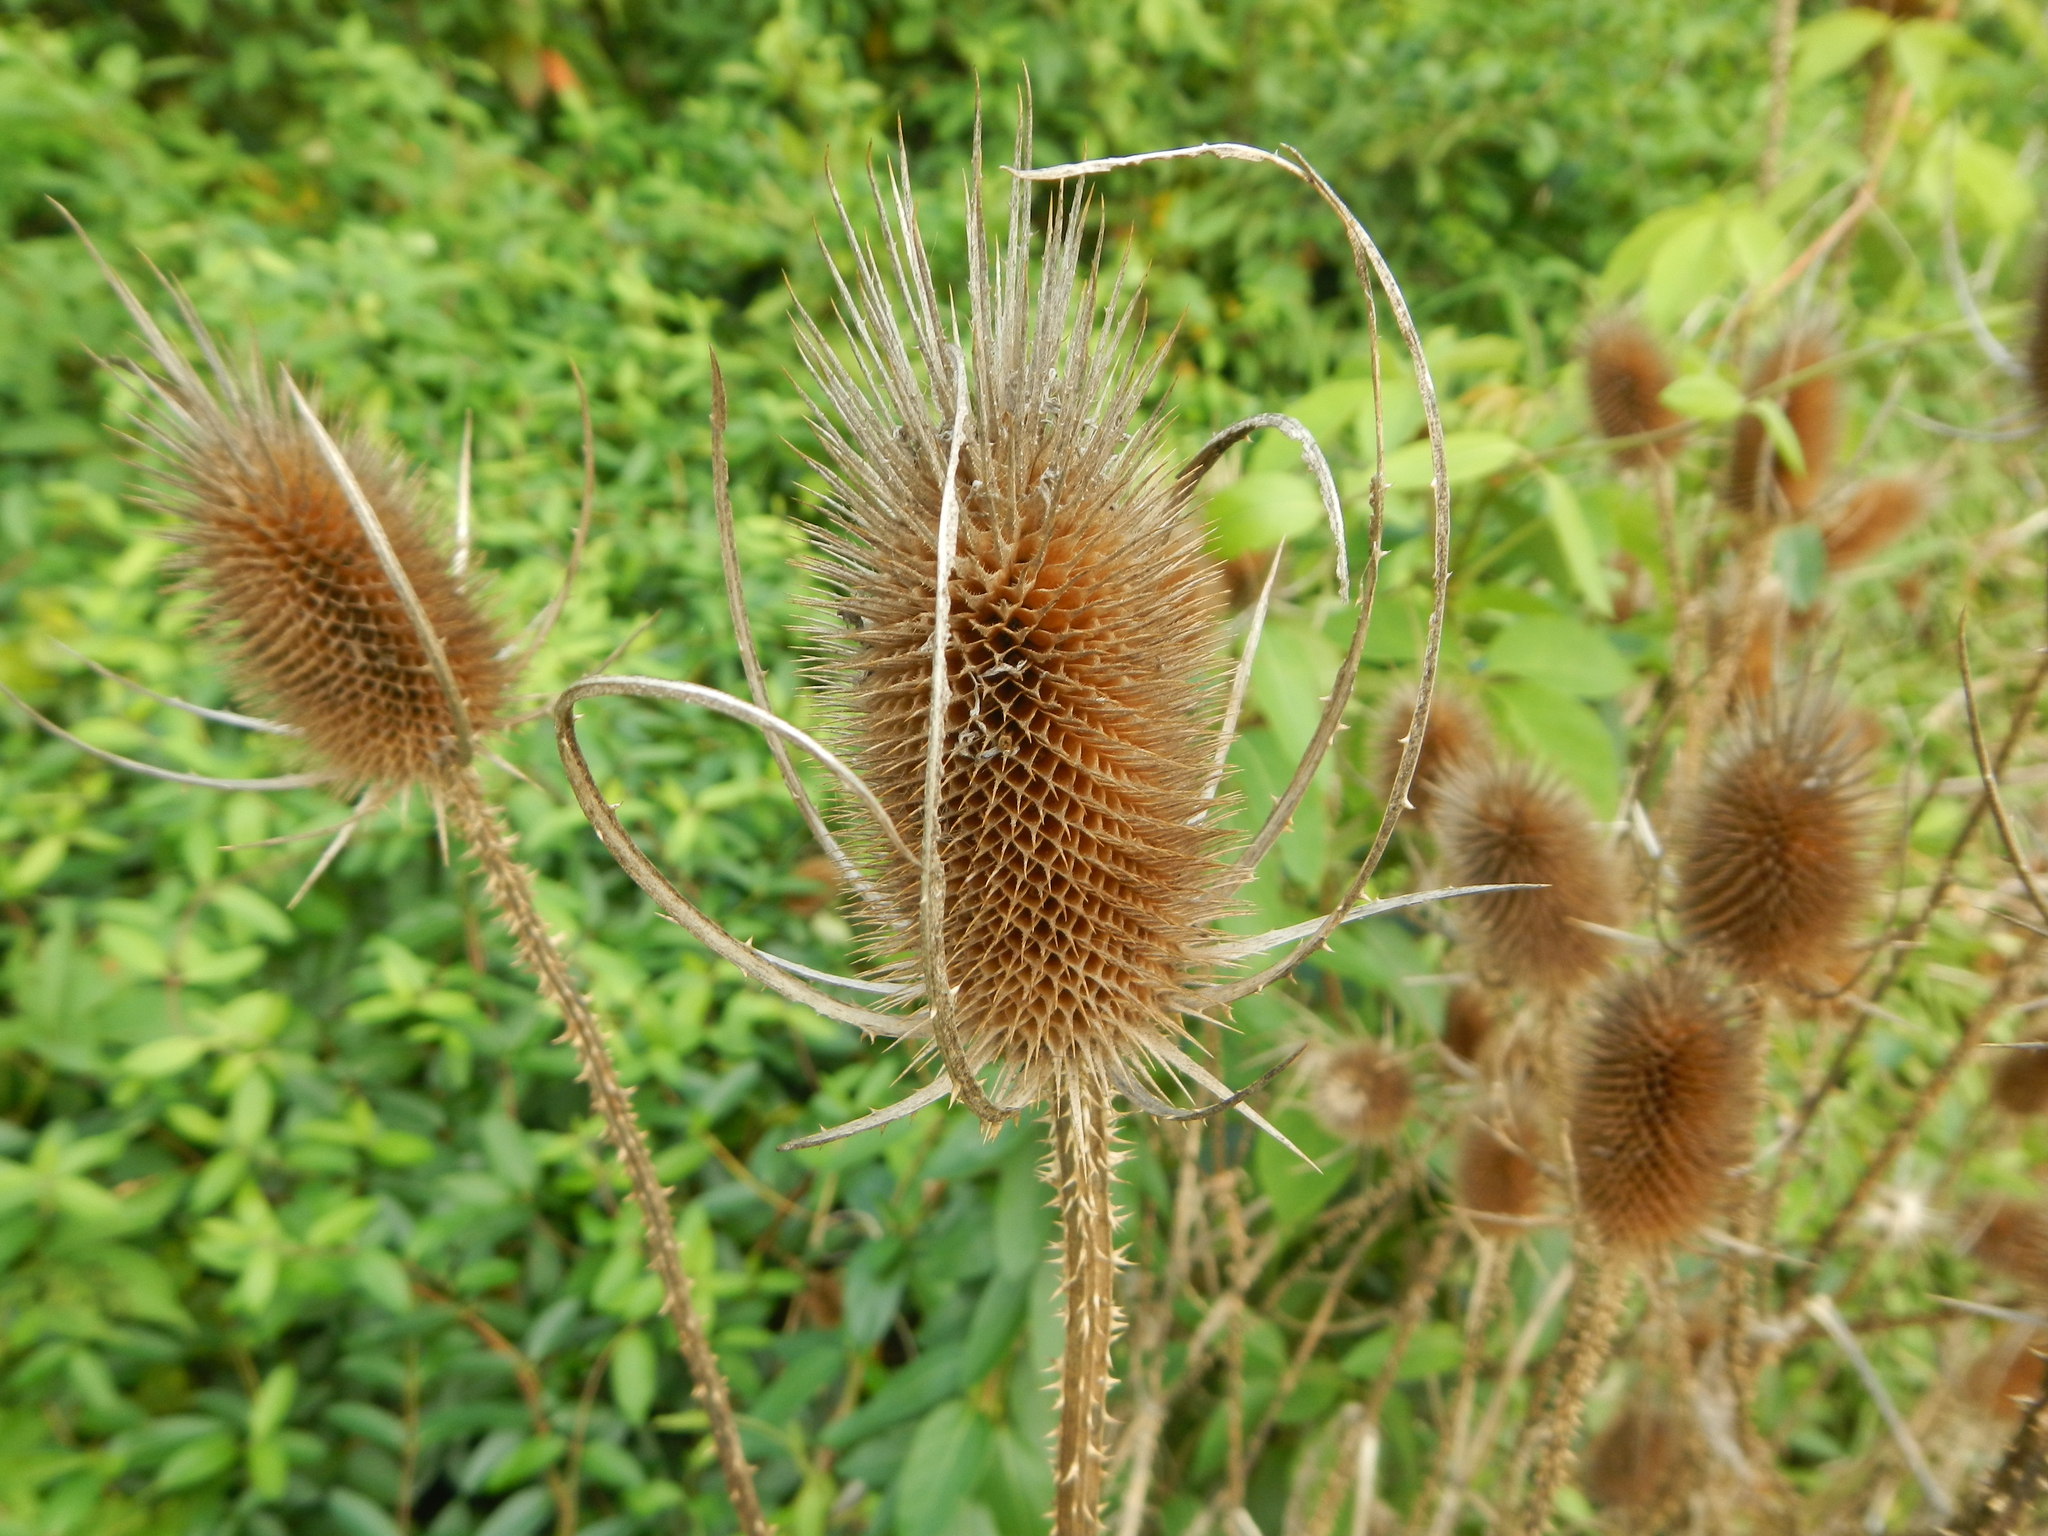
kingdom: Plantae
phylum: Tracheophyta
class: Magnoliopsida
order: Dipsacales
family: Caprifoliaceae
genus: Dipsacus
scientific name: Dipsacus fullonum
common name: Teasel
